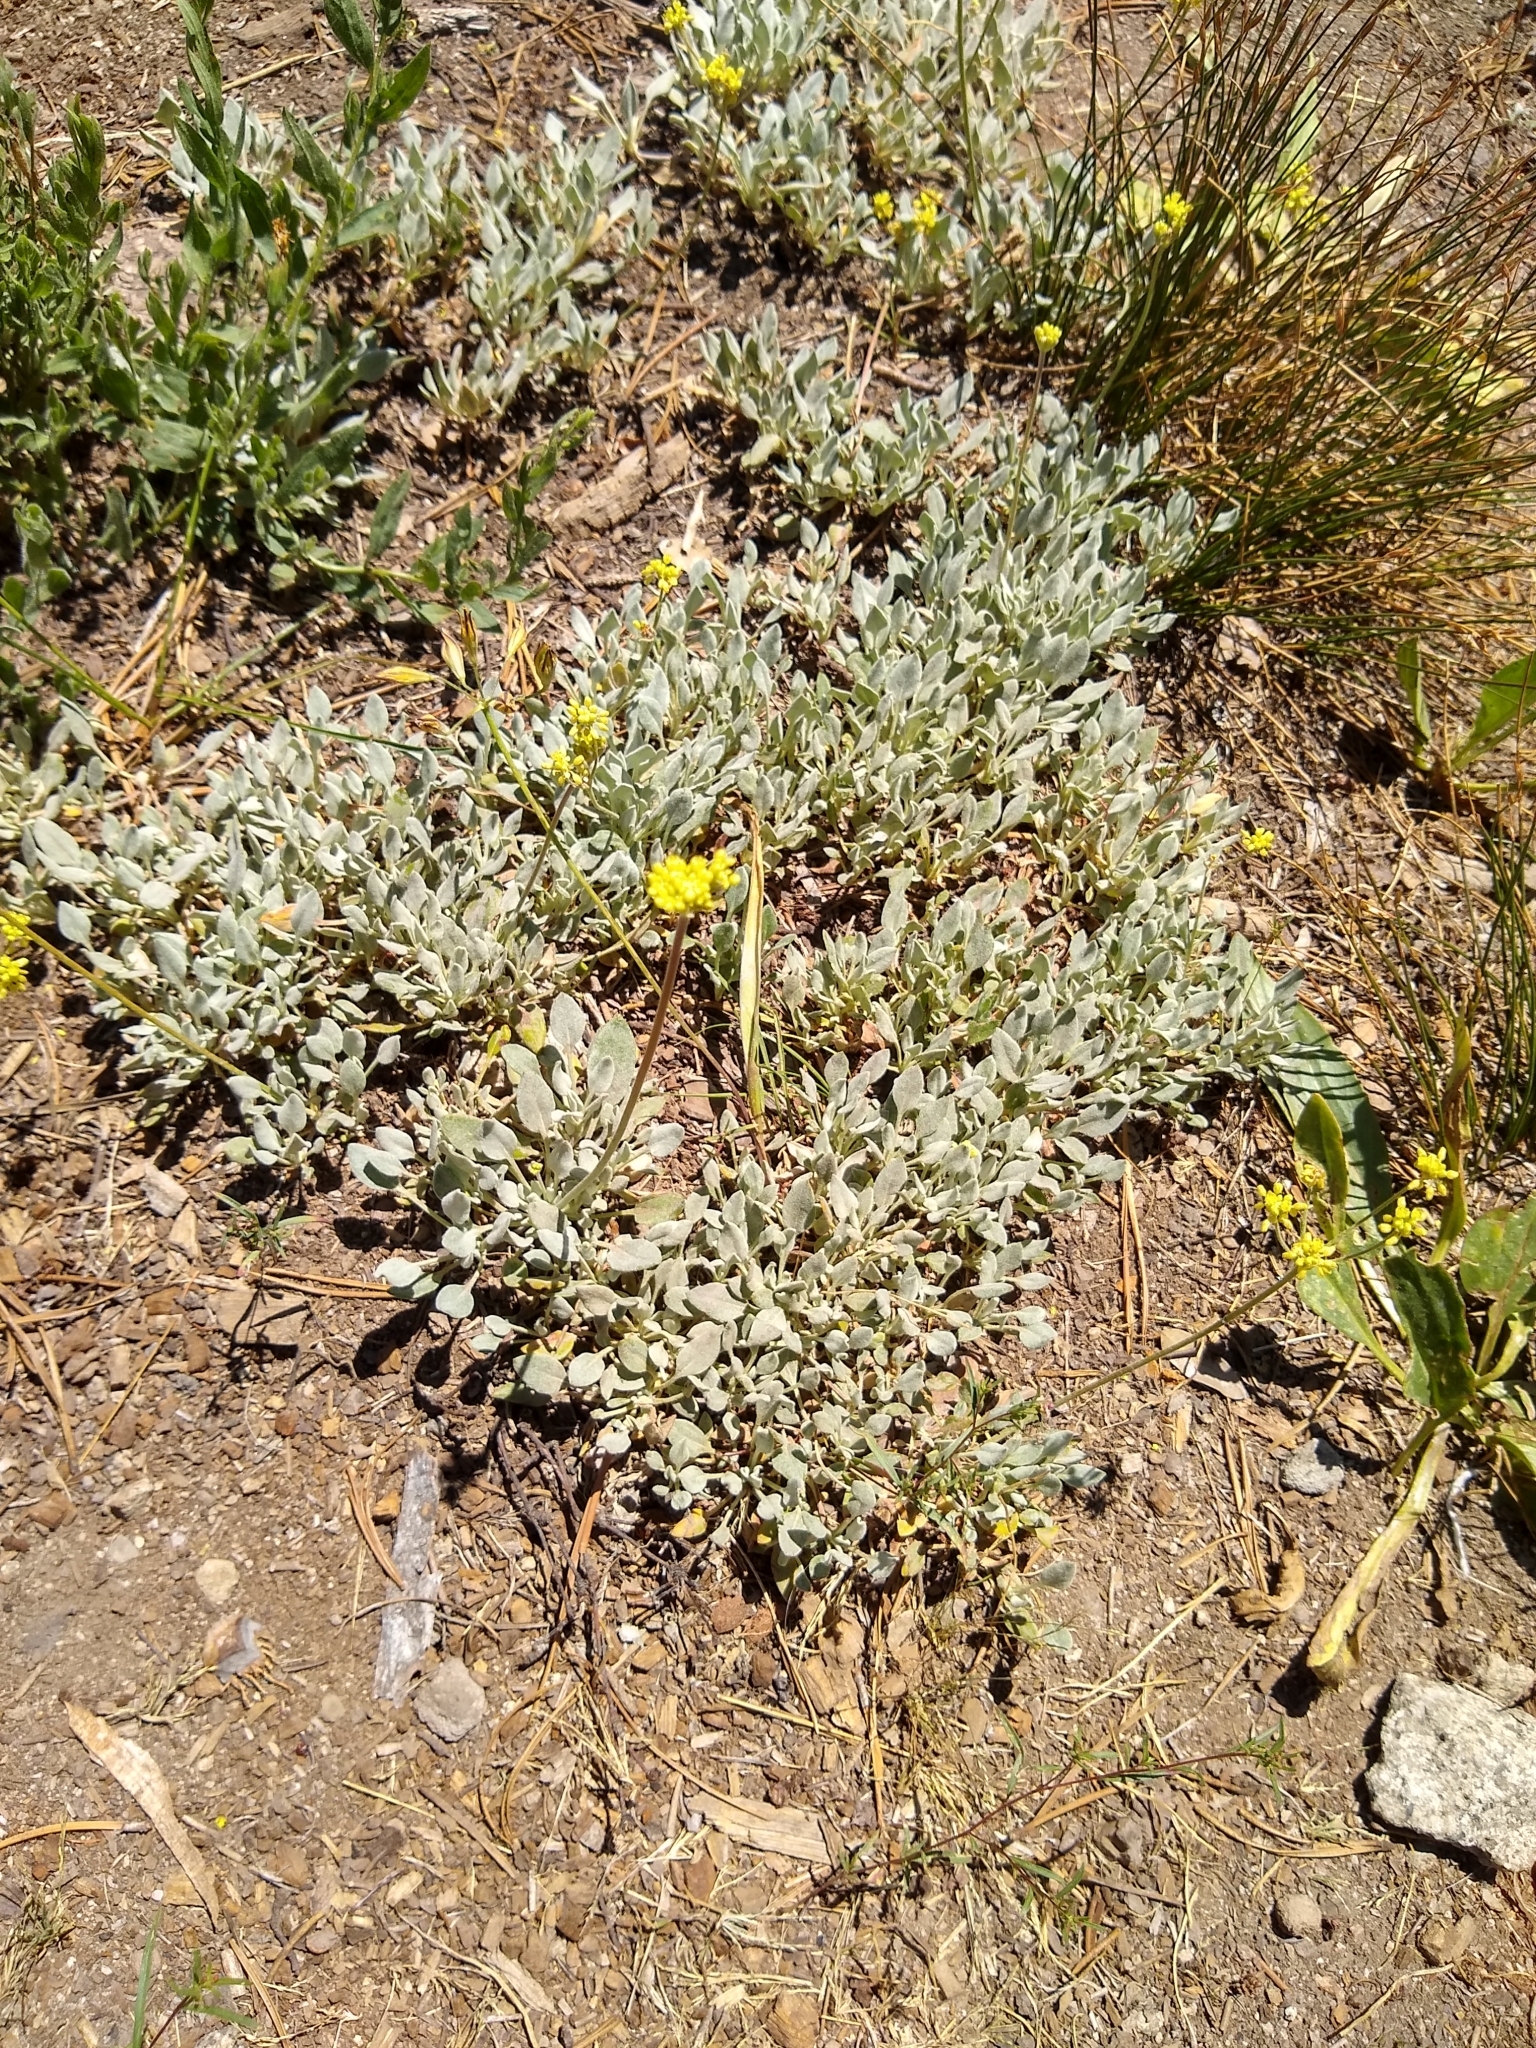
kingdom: Plantae
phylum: Tracheophyta
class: Magnoliopsida
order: Caryophyllales
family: Polygonaceae
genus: Eriogonum
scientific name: Eriogonum incanum
